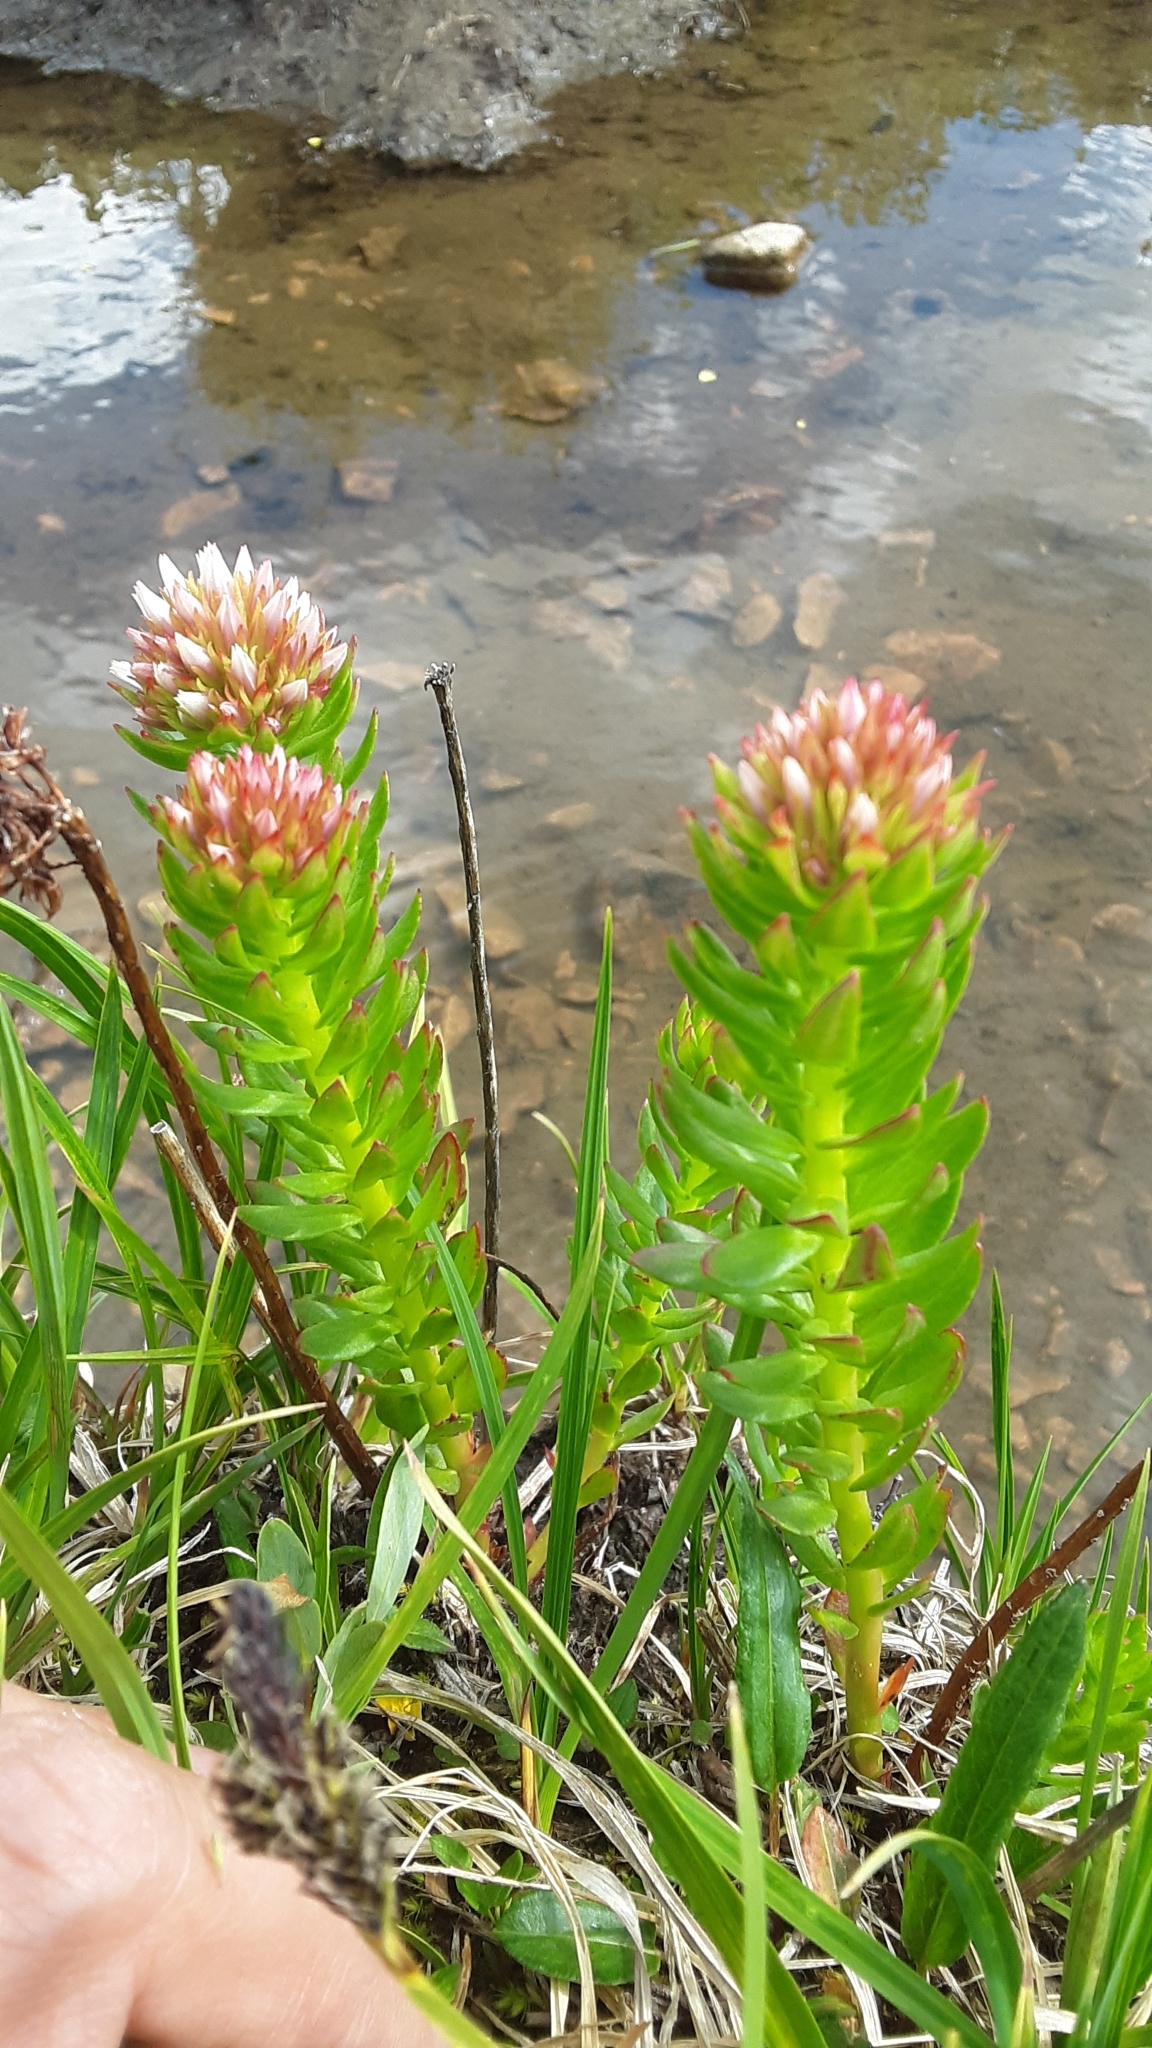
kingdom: Plantae
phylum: Tracheophyta
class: Magnoliopsida
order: Saxifragales
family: Crassulaceae
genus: Rhodiola
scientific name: Rhodiola rhodantha
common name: Red orpine
